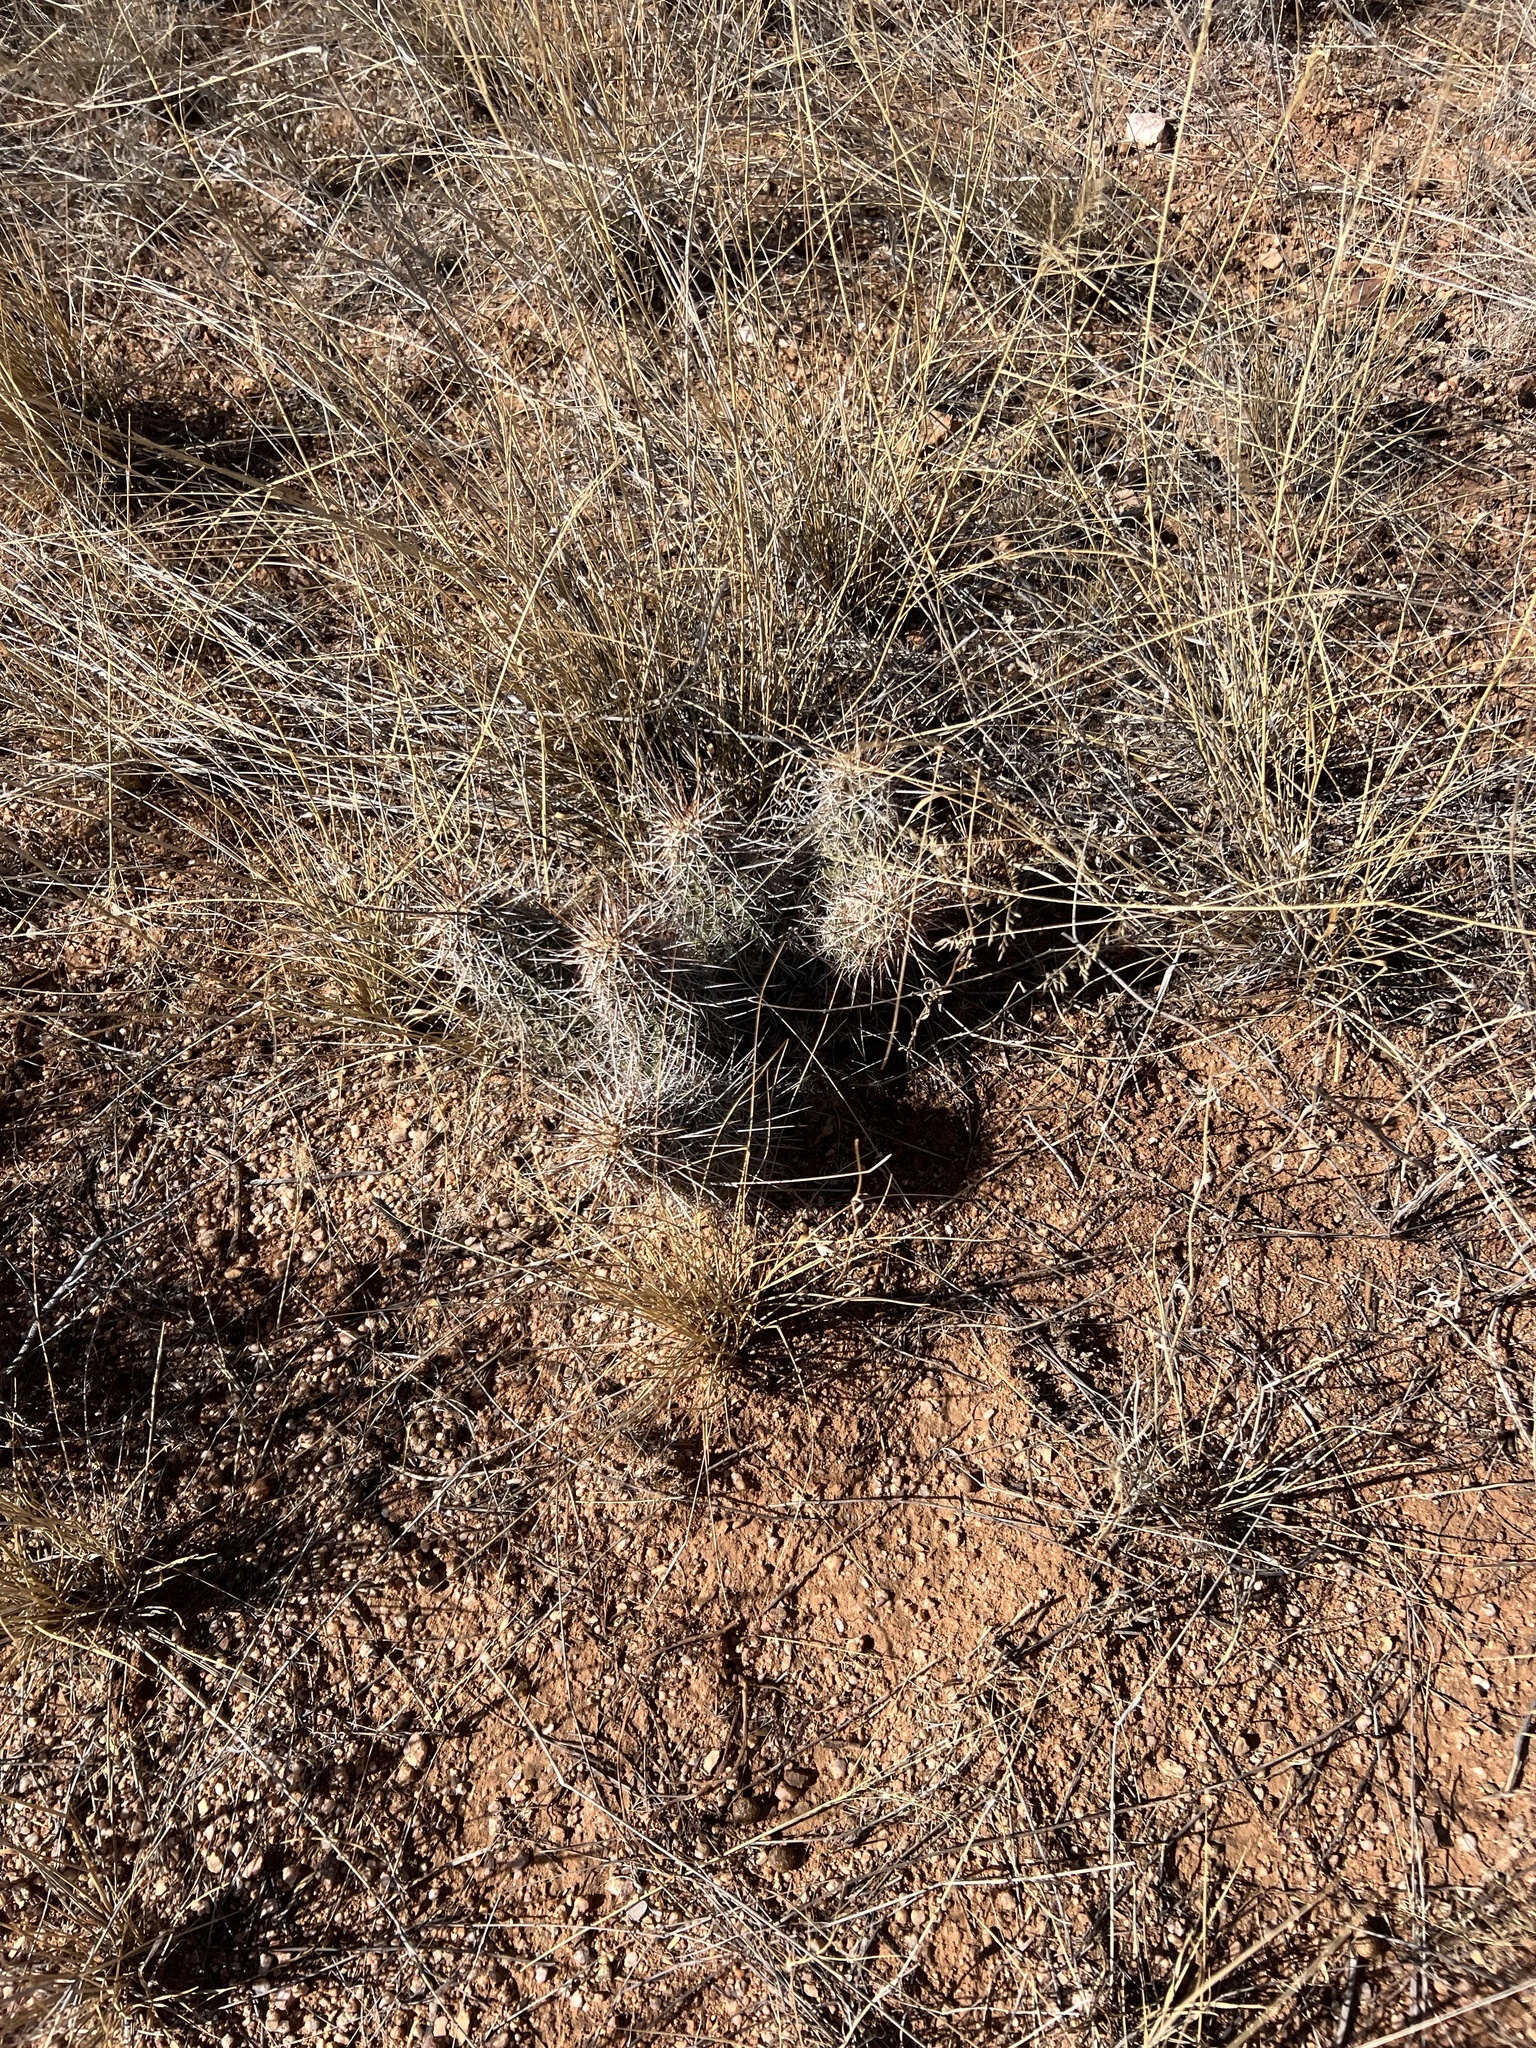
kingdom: Plantae
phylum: Tracheophyta
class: Magnoliopsida
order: Caryophyllales
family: Cactaceae
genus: Echinocereus
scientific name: Echinocereus fasciculatus
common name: Bundle hedgehog
